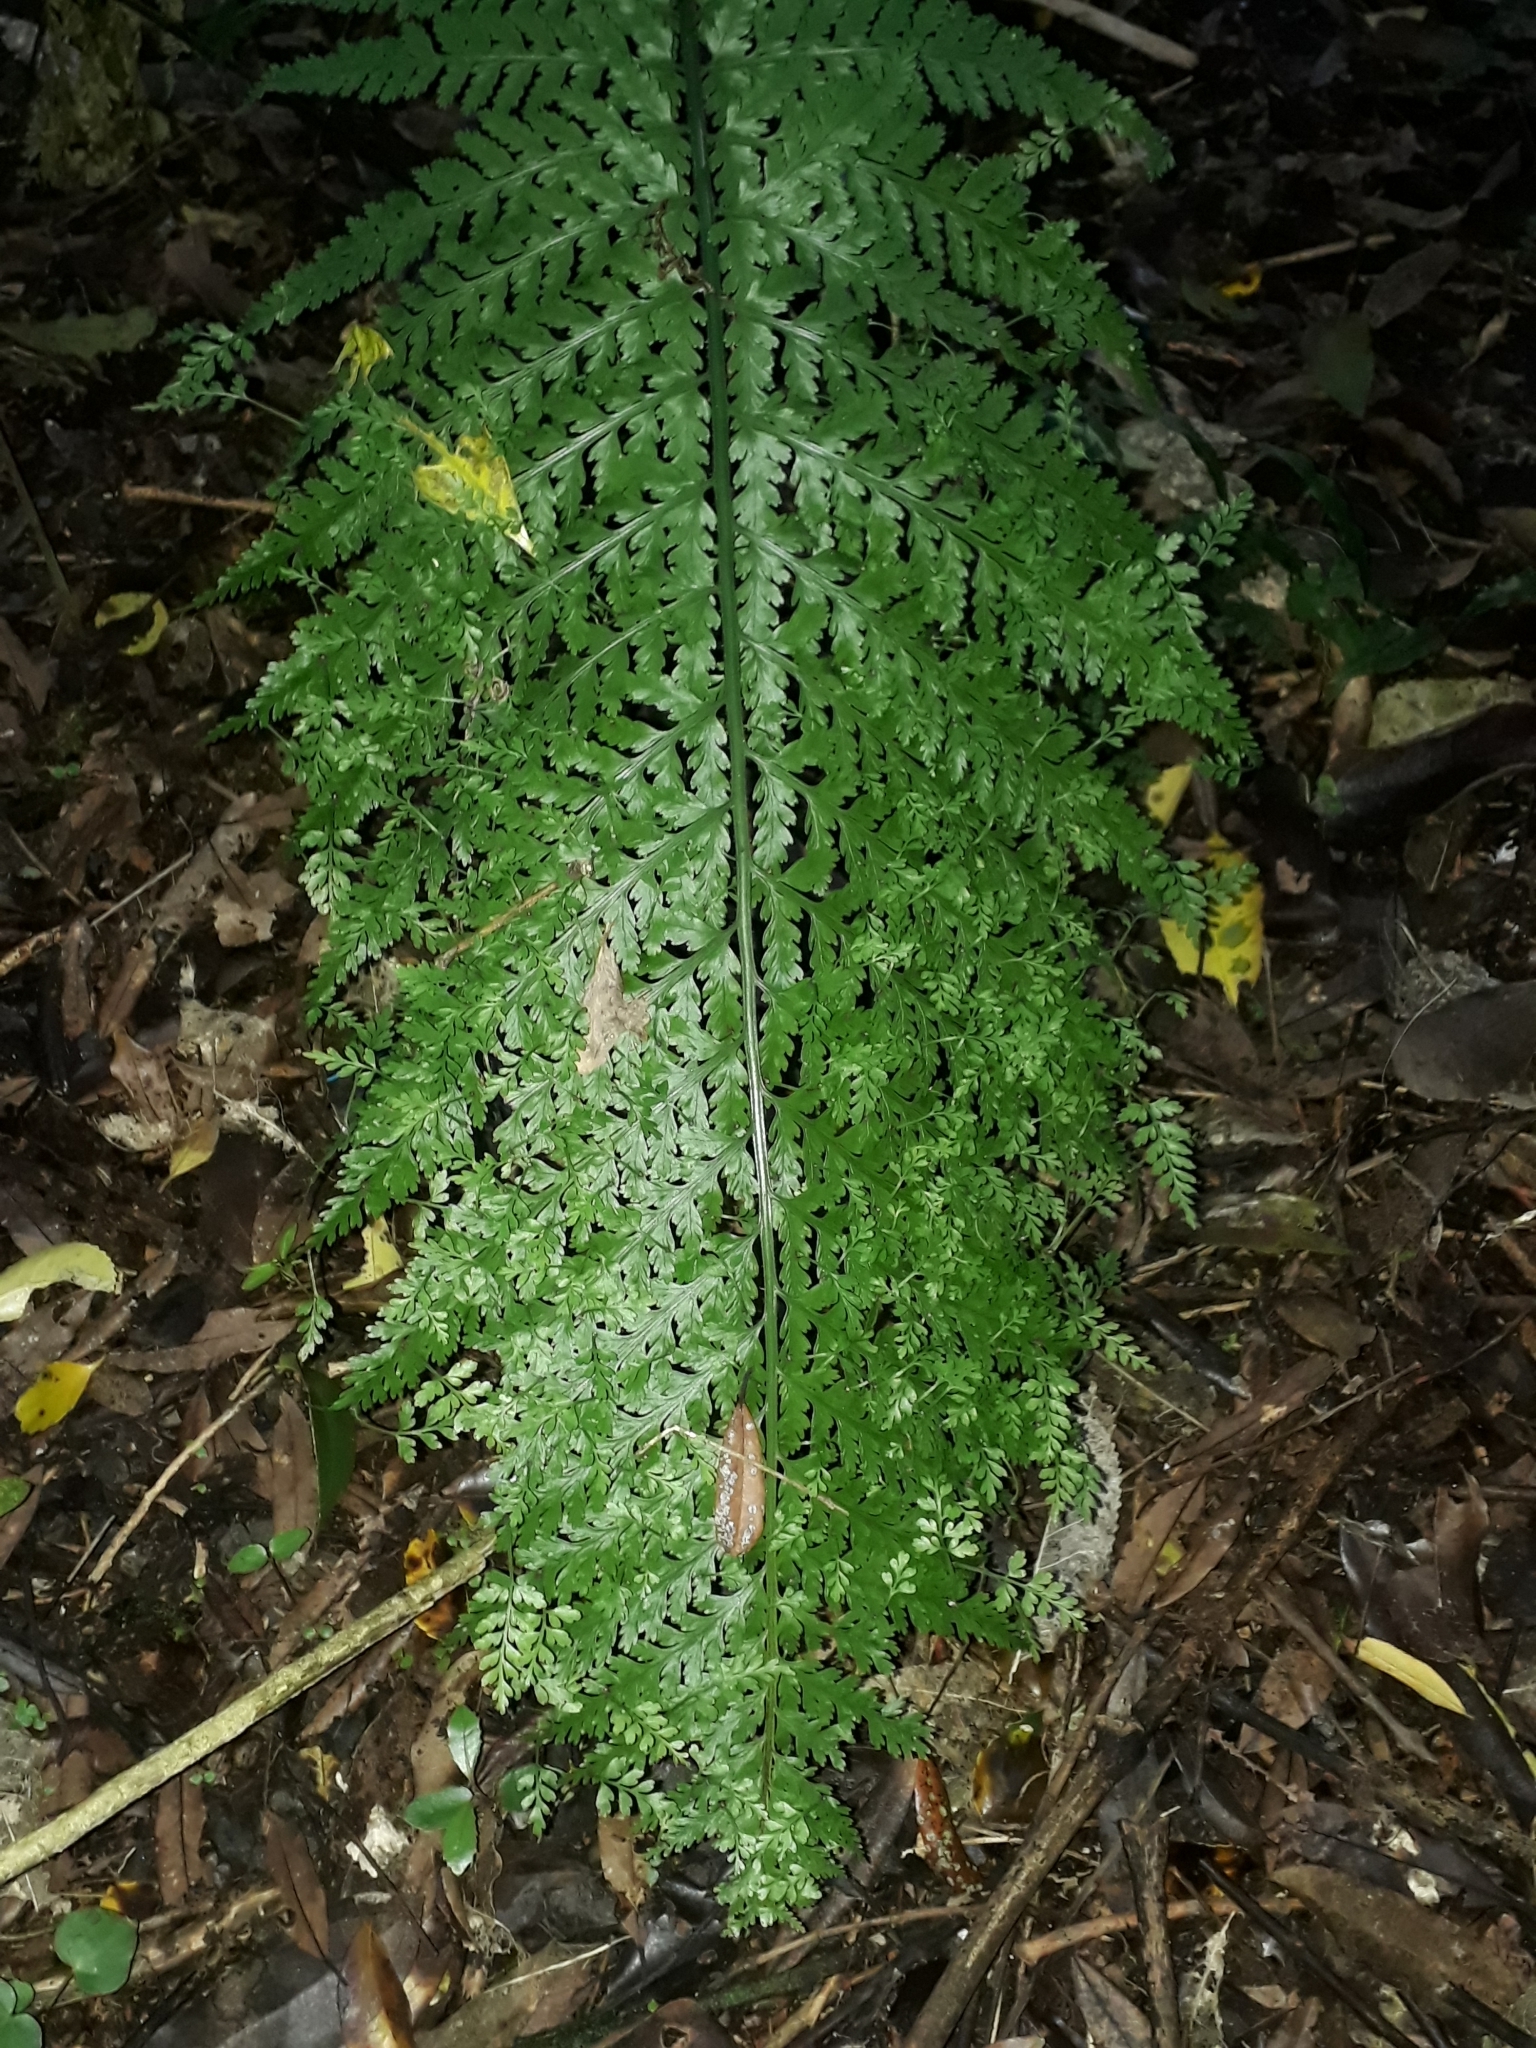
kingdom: Plantae
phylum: Tracheophyta
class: Polypodiopsida
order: Polypodiales
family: Aspleniaceae
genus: Asplenium
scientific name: Asplenium bulbiferum
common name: Mother fern
